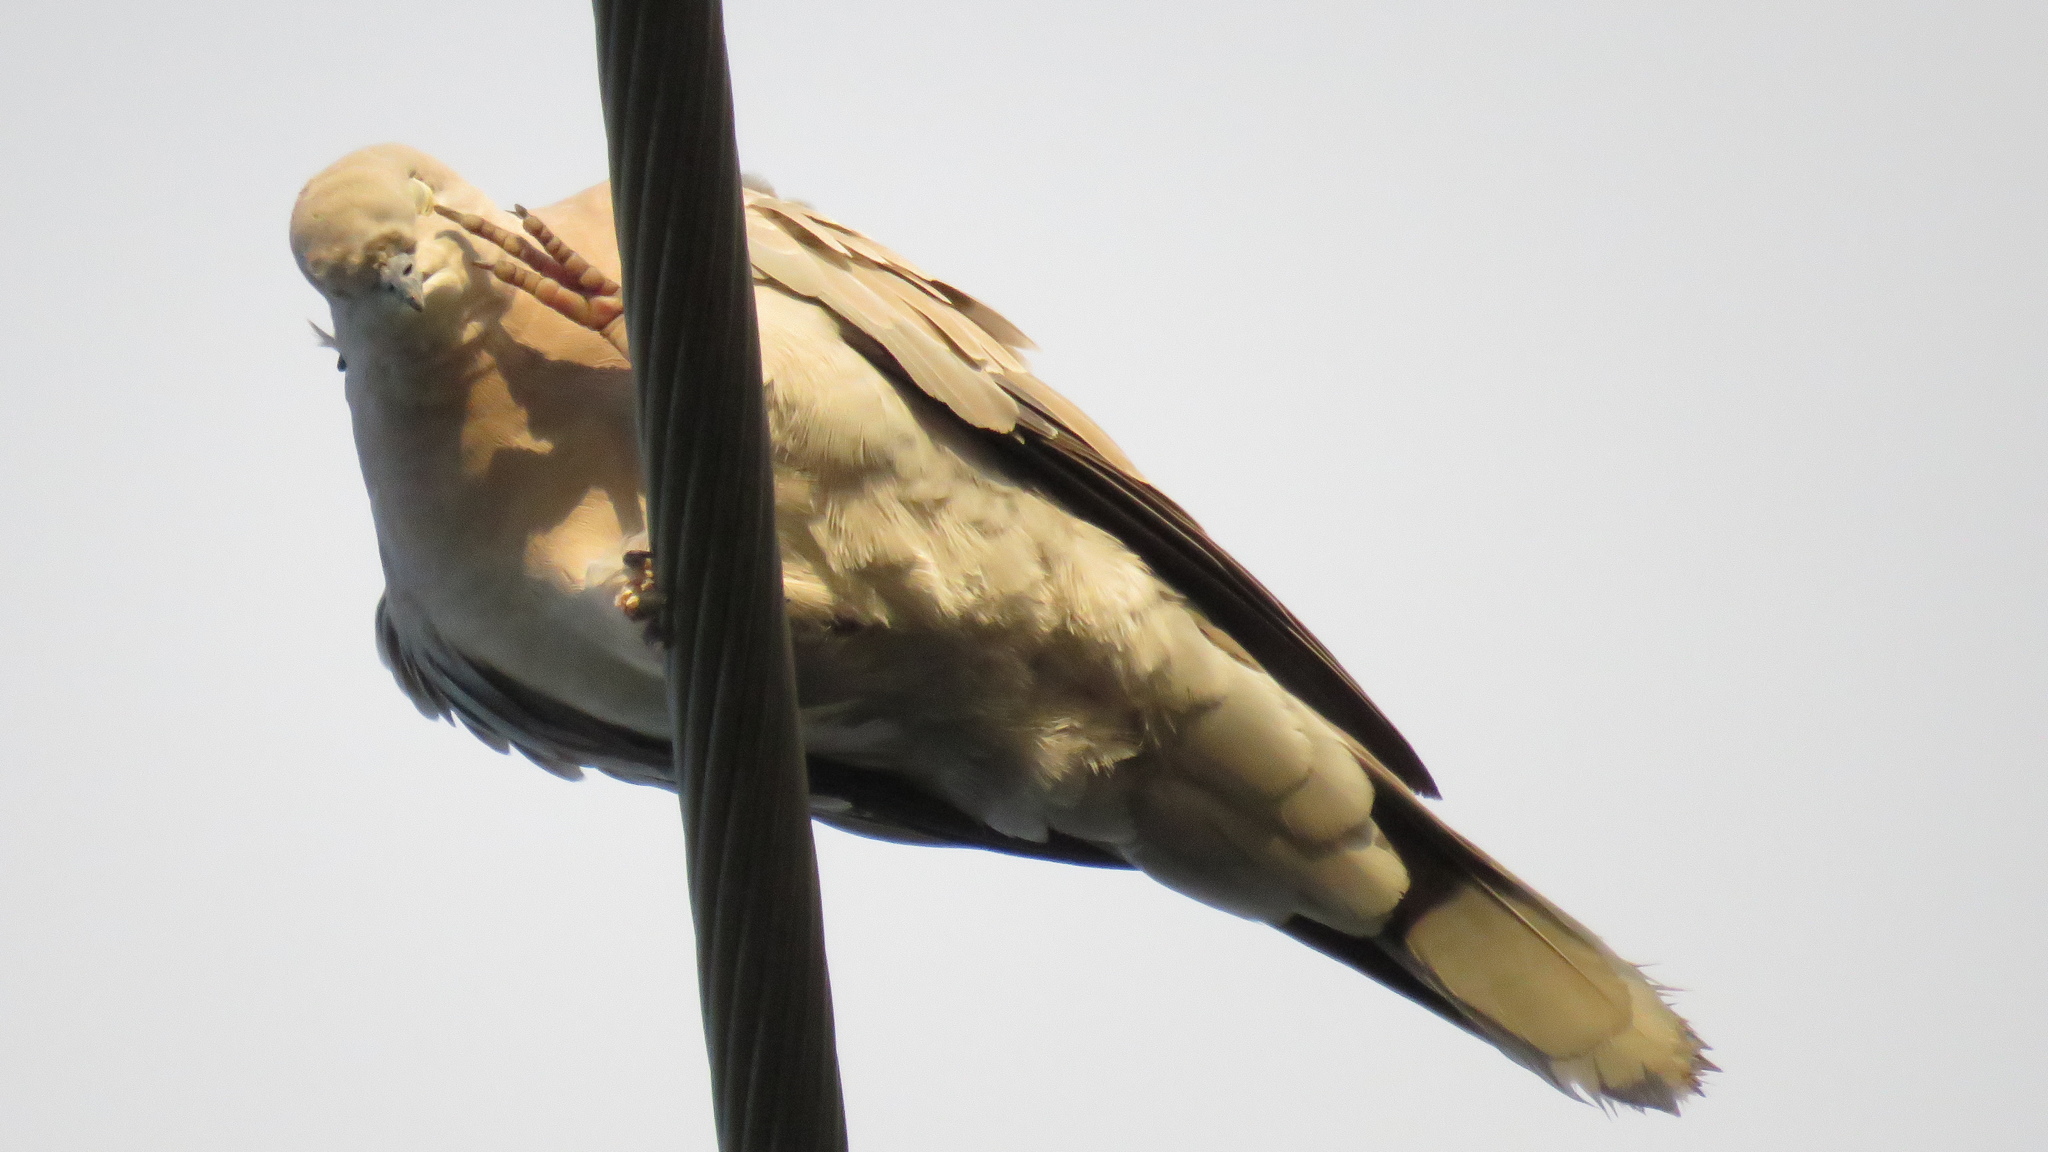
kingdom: Animalia
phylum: Chordata
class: Aves
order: Columbiformes
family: Columbidae
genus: Streptopelia
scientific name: Streptopelia decaocto
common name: Eurasian collared dove
